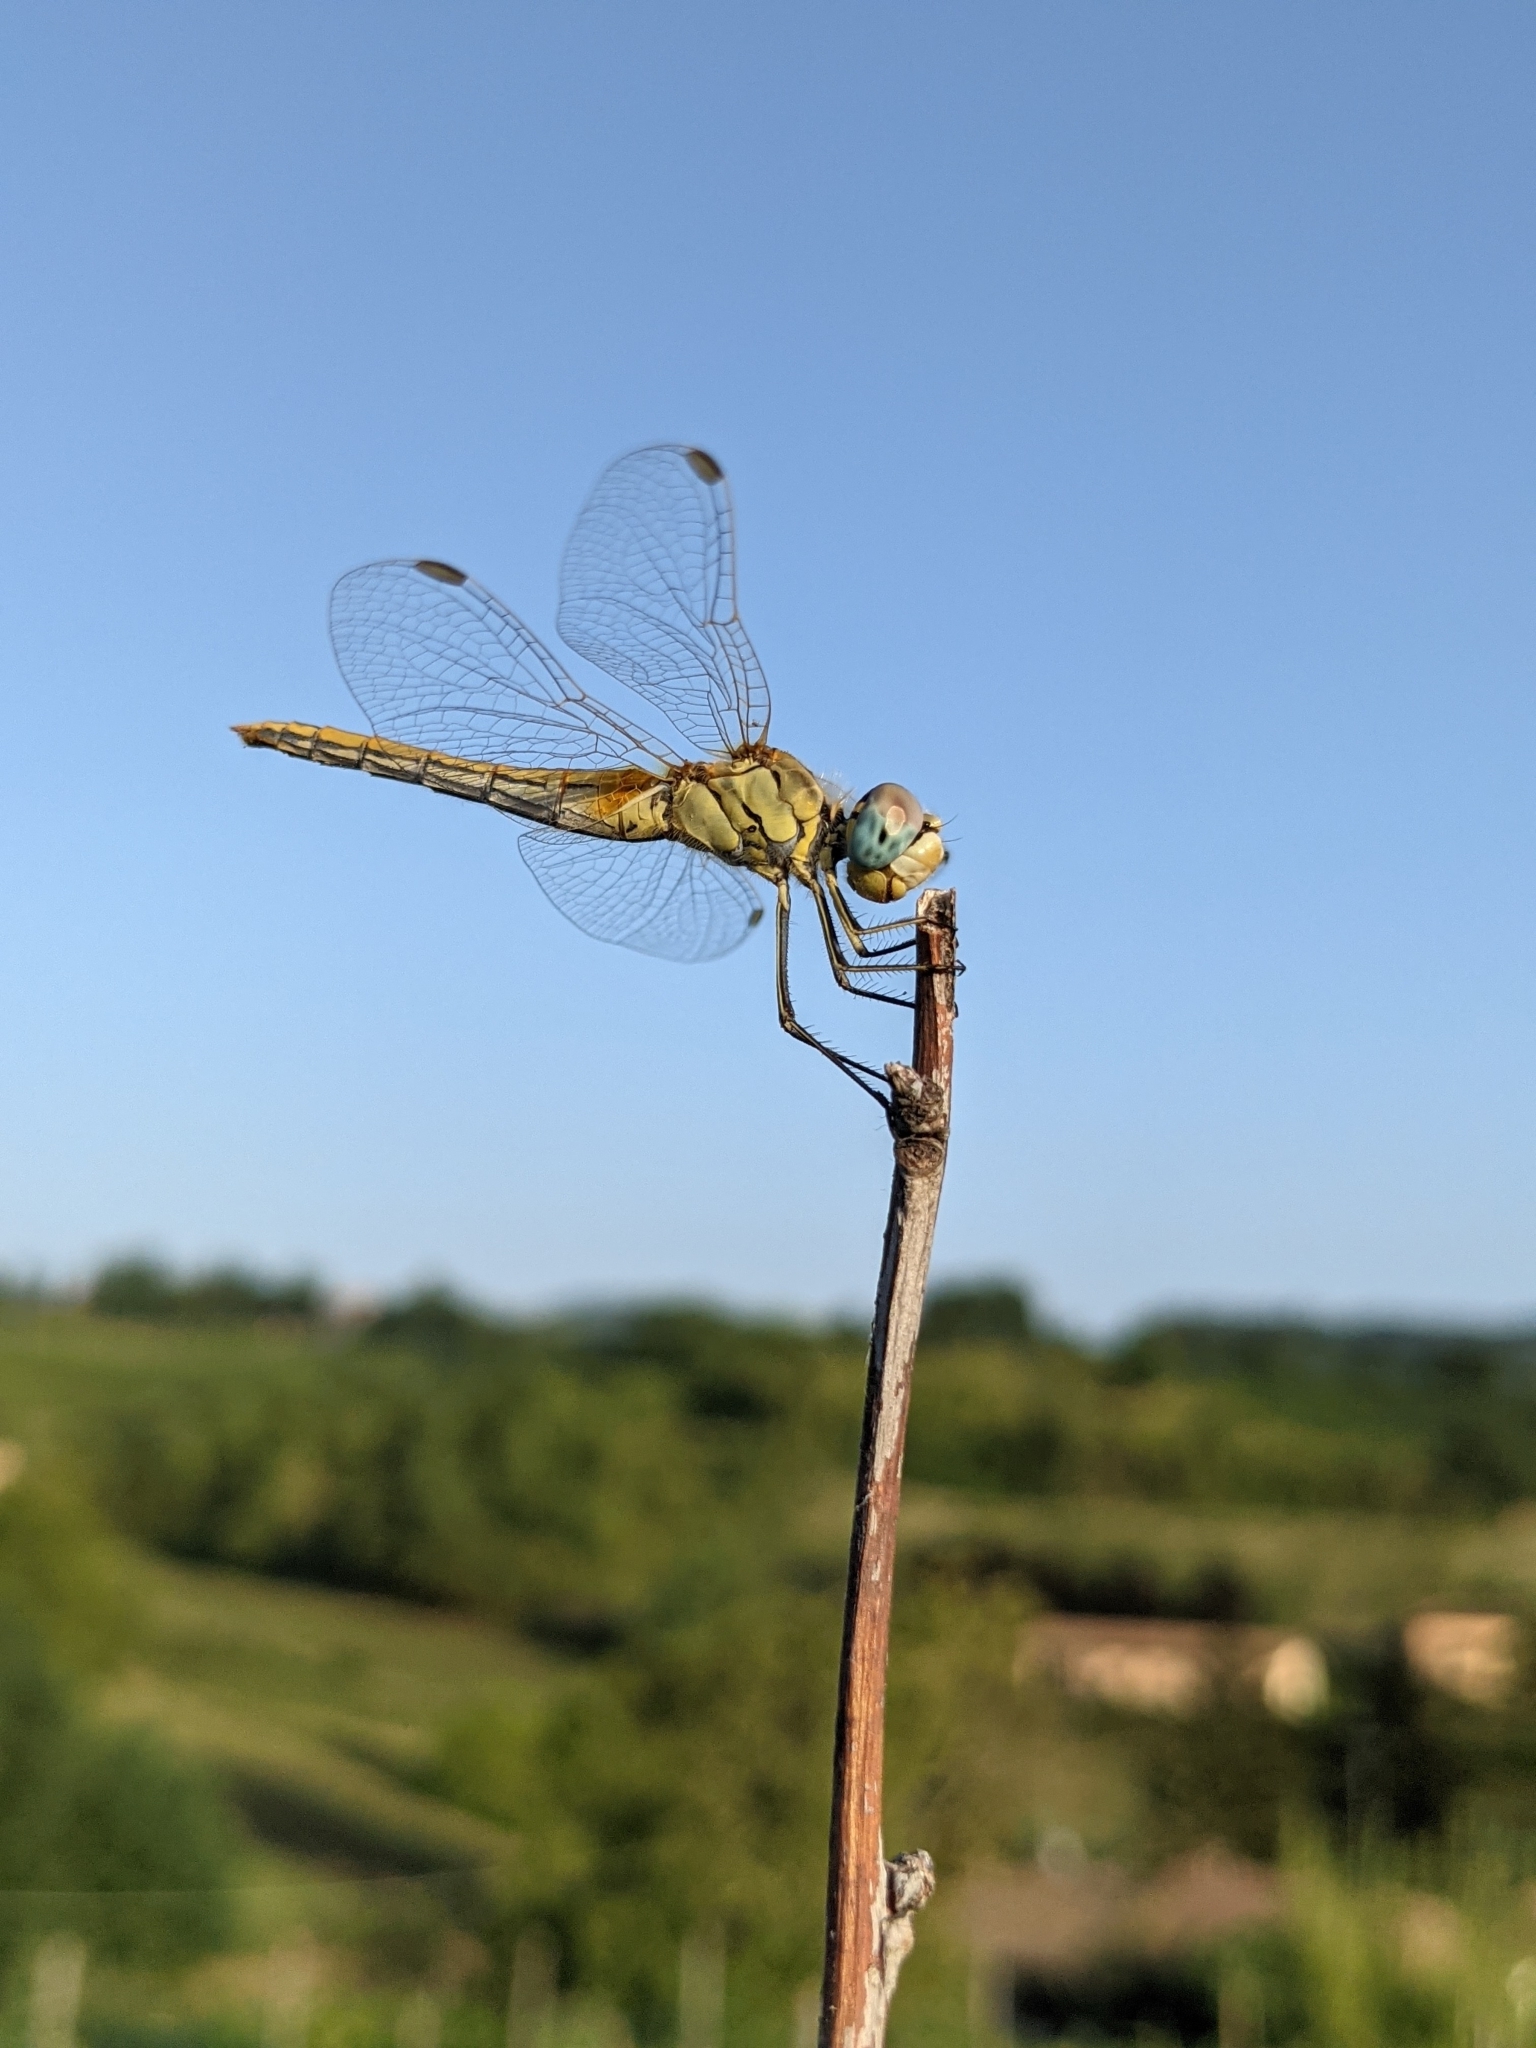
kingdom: Animalia
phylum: Arthropoda
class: Insecta
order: Odonata
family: Libellulidae
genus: Sympetrum
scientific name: Sympetrum fonscolombii
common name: Red-veined darter
